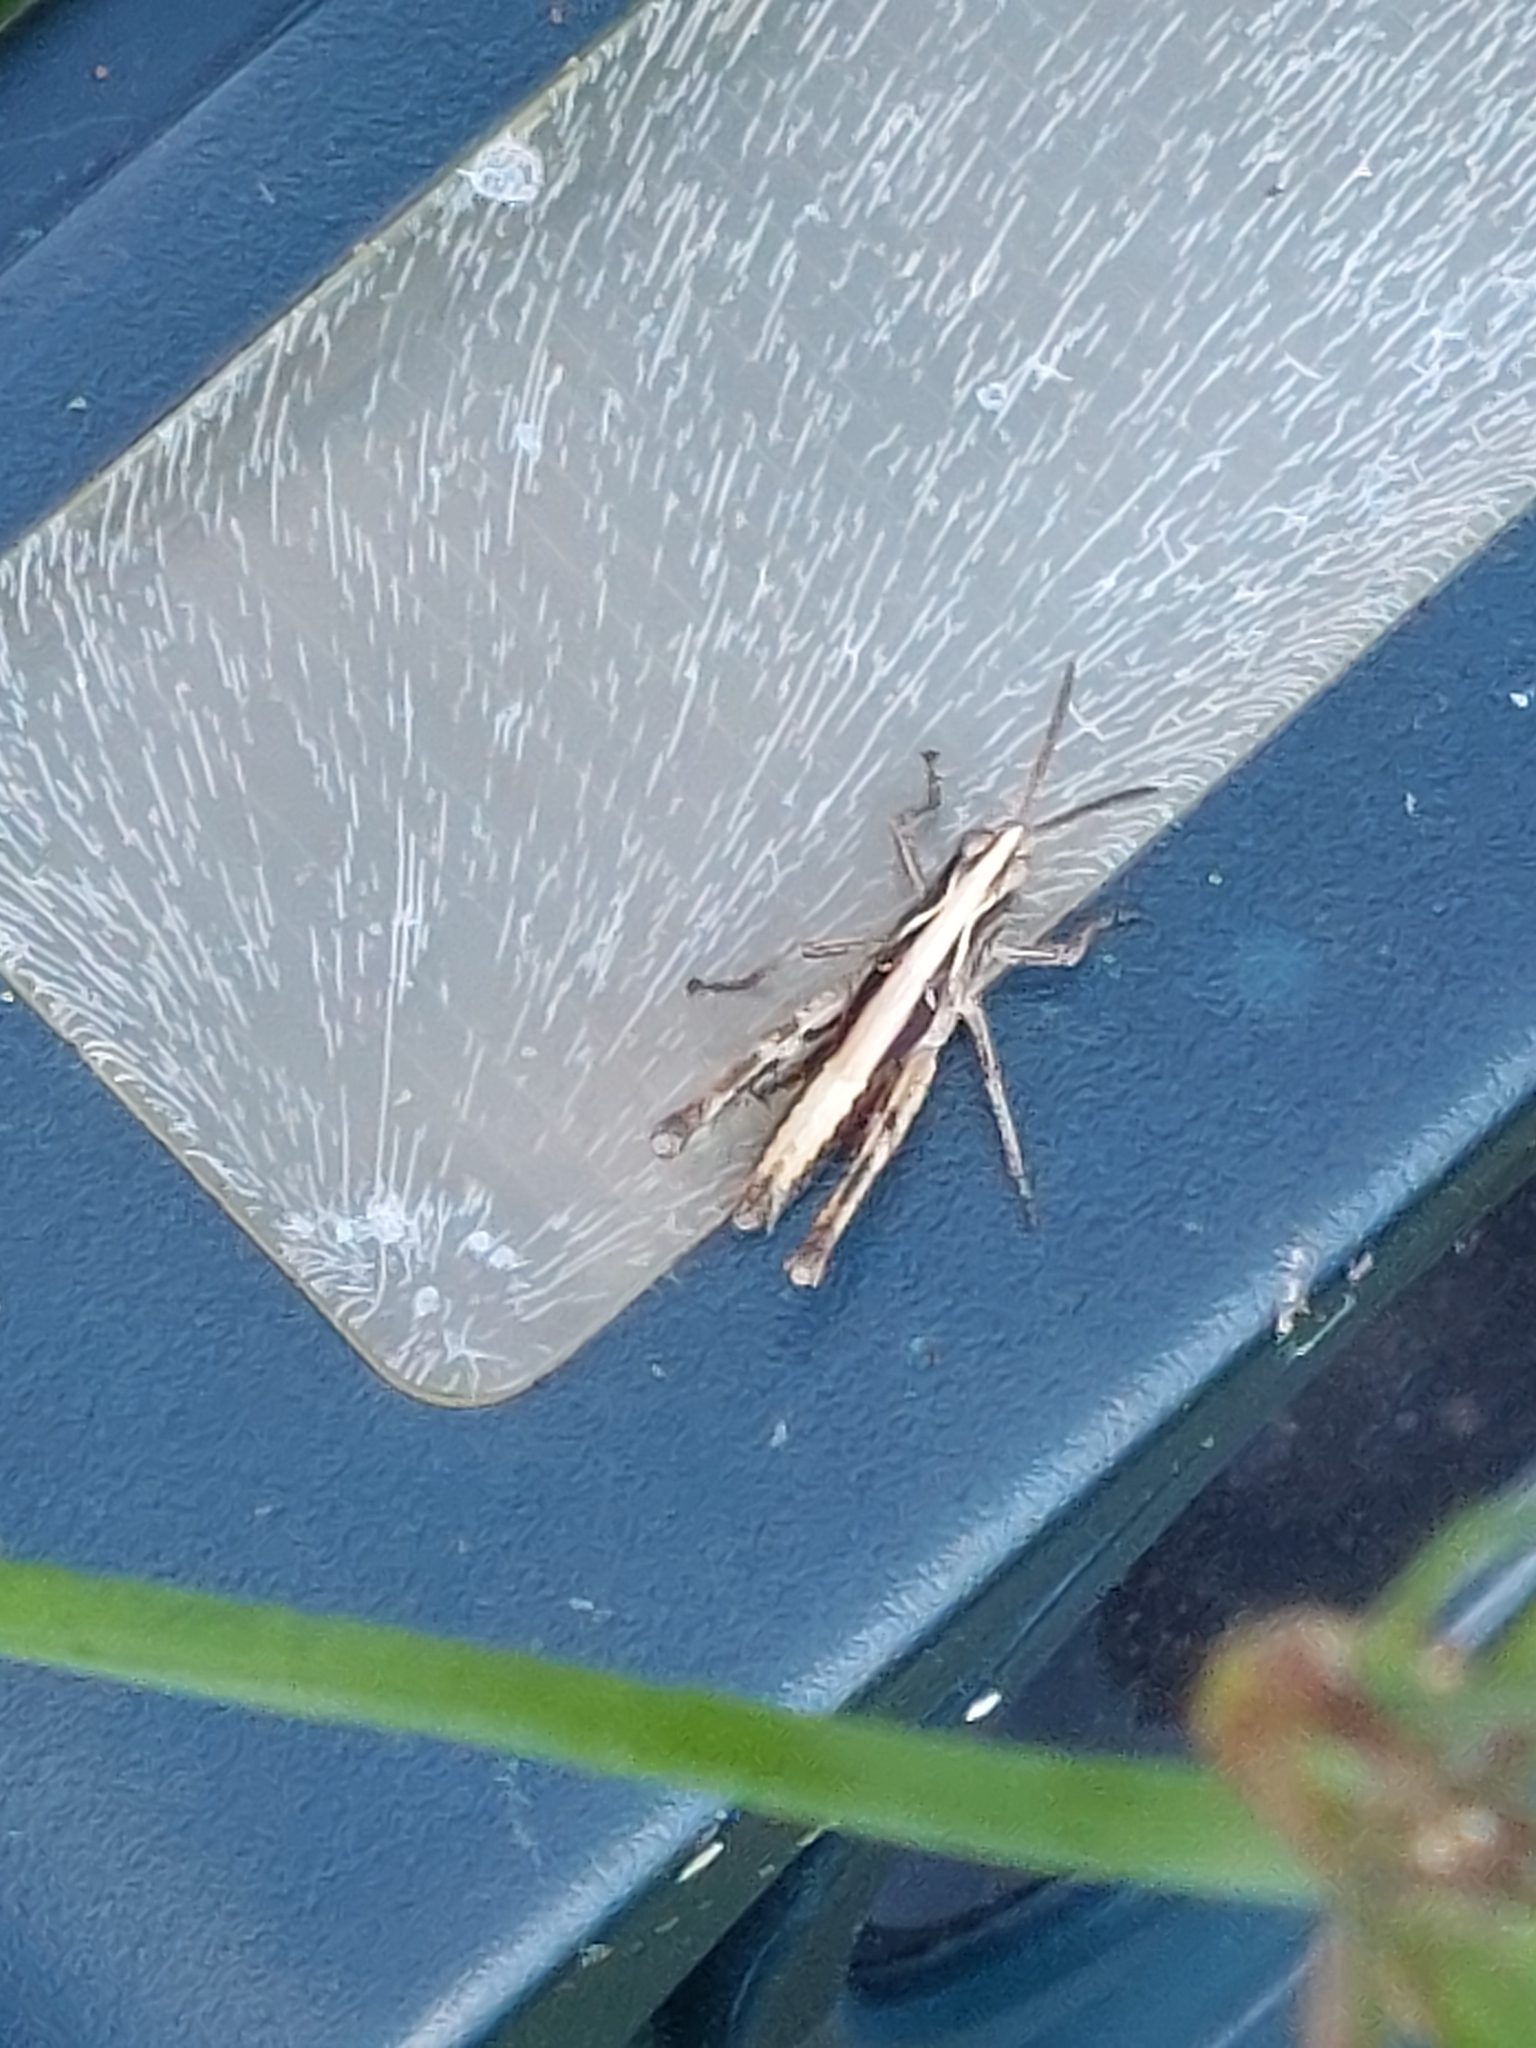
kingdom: Animalia
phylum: Arthropoda
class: Insecta
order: Orthoptera
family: Acrididae
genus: Chorthippus
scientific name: Chorthippus brunneus
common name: Field grasshopper
